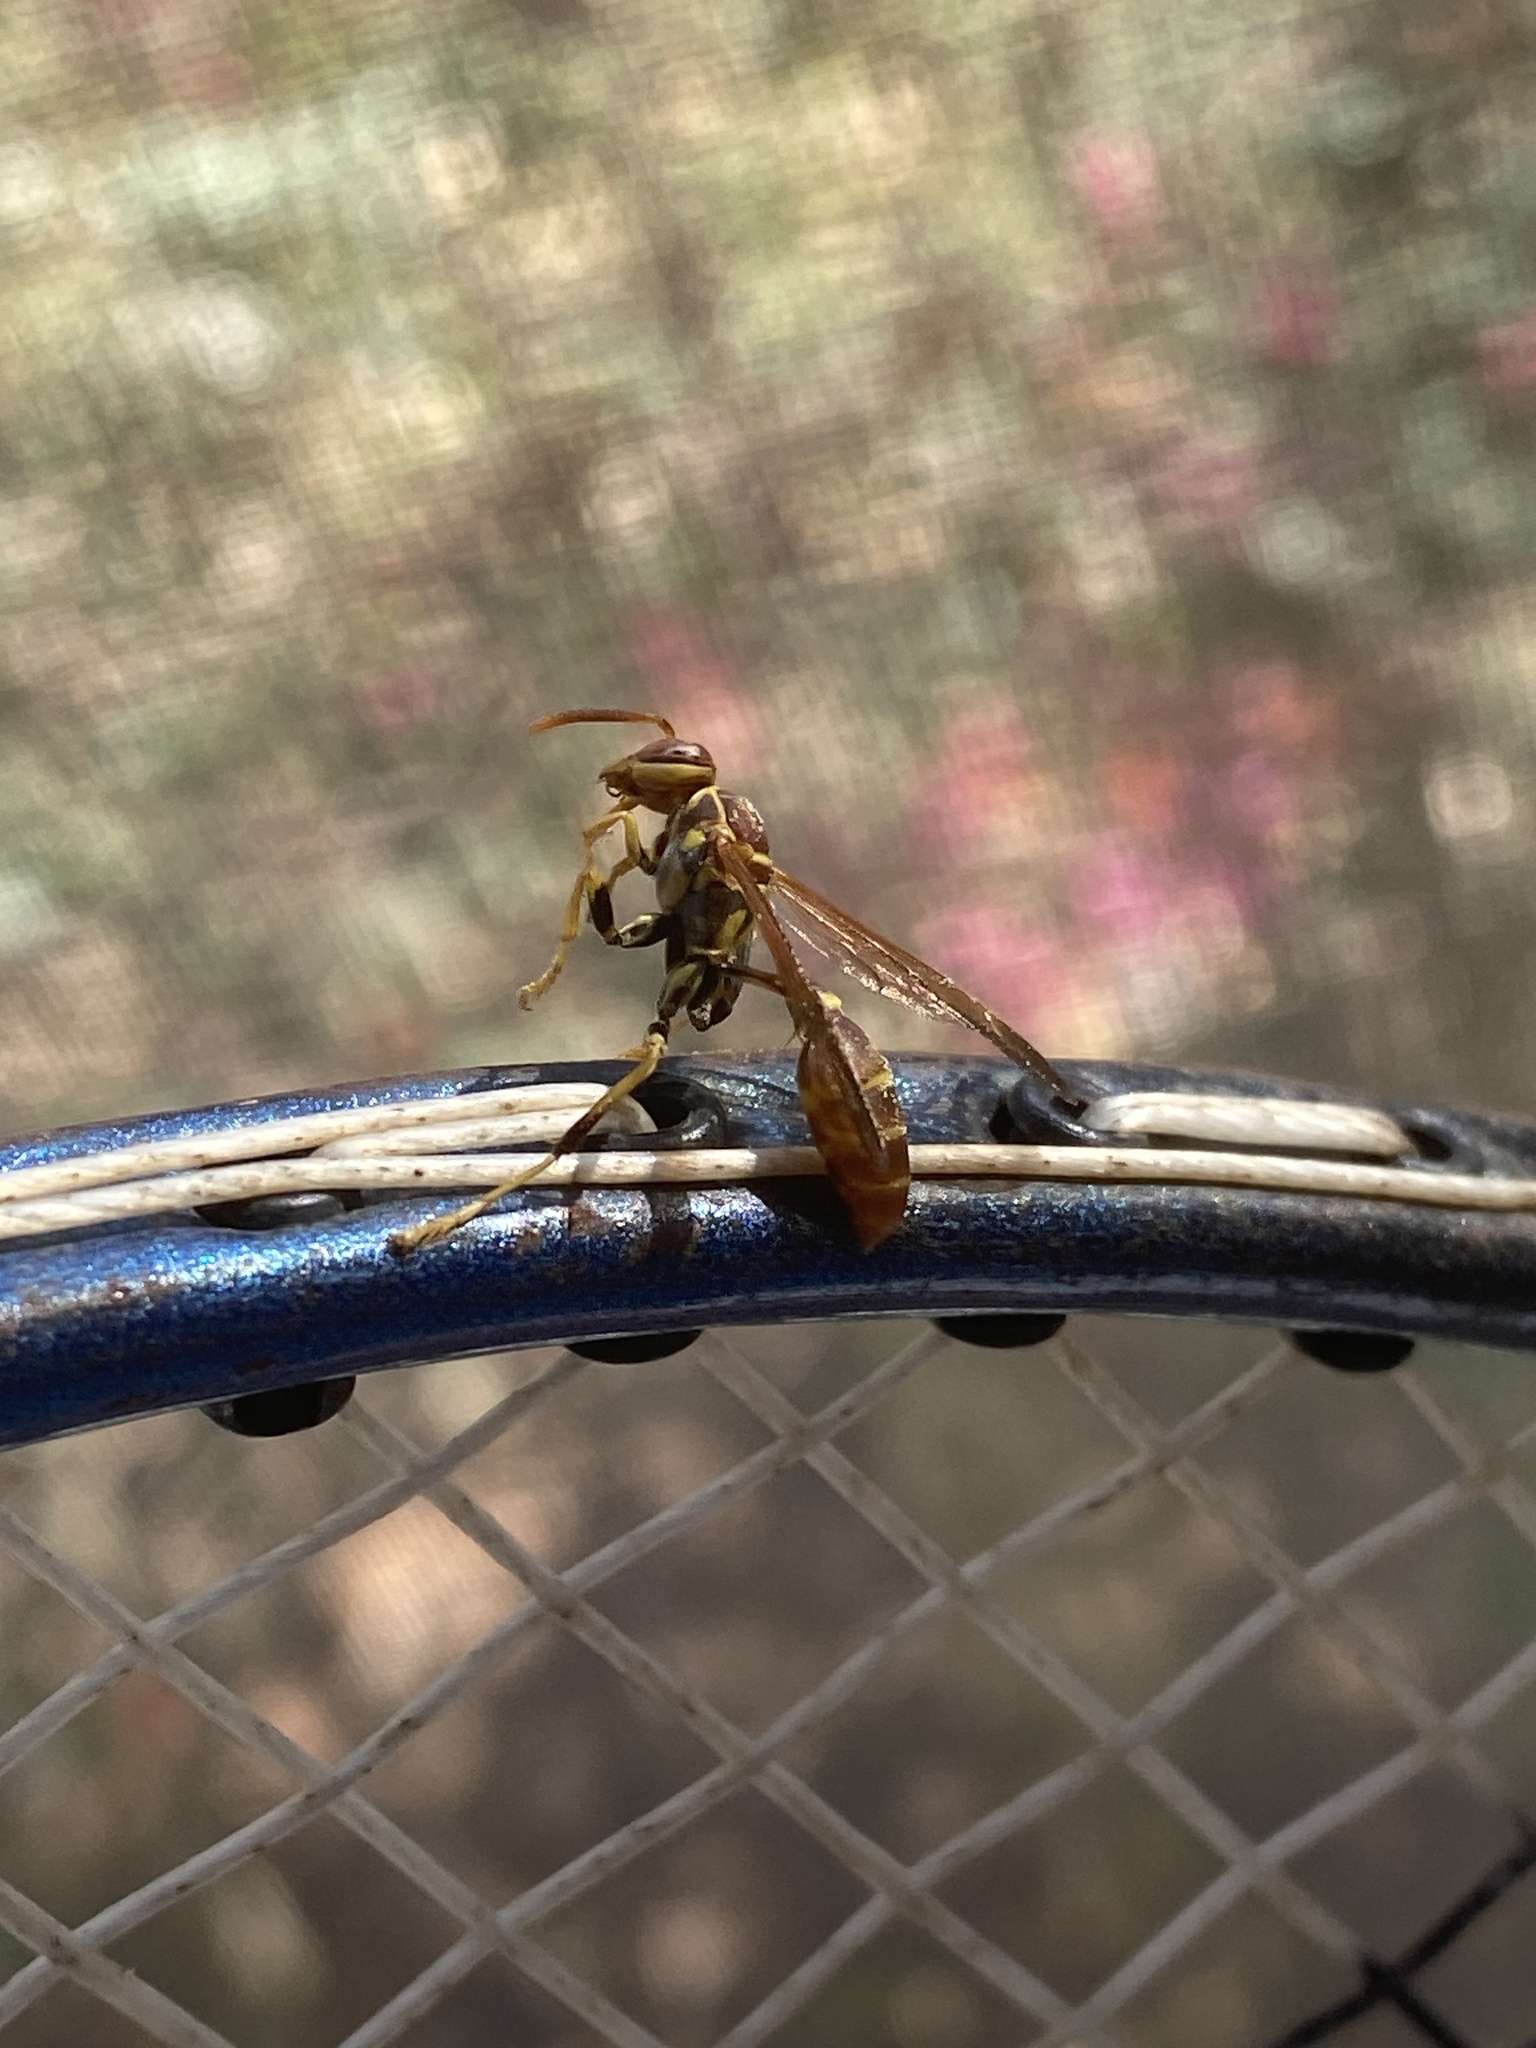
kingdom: Animalia
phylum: Arthropoda
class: Insecta
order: Hymenoptera
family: Vespidae
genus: Mischocyttarus
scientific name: Mischocyttarus mexicanus
